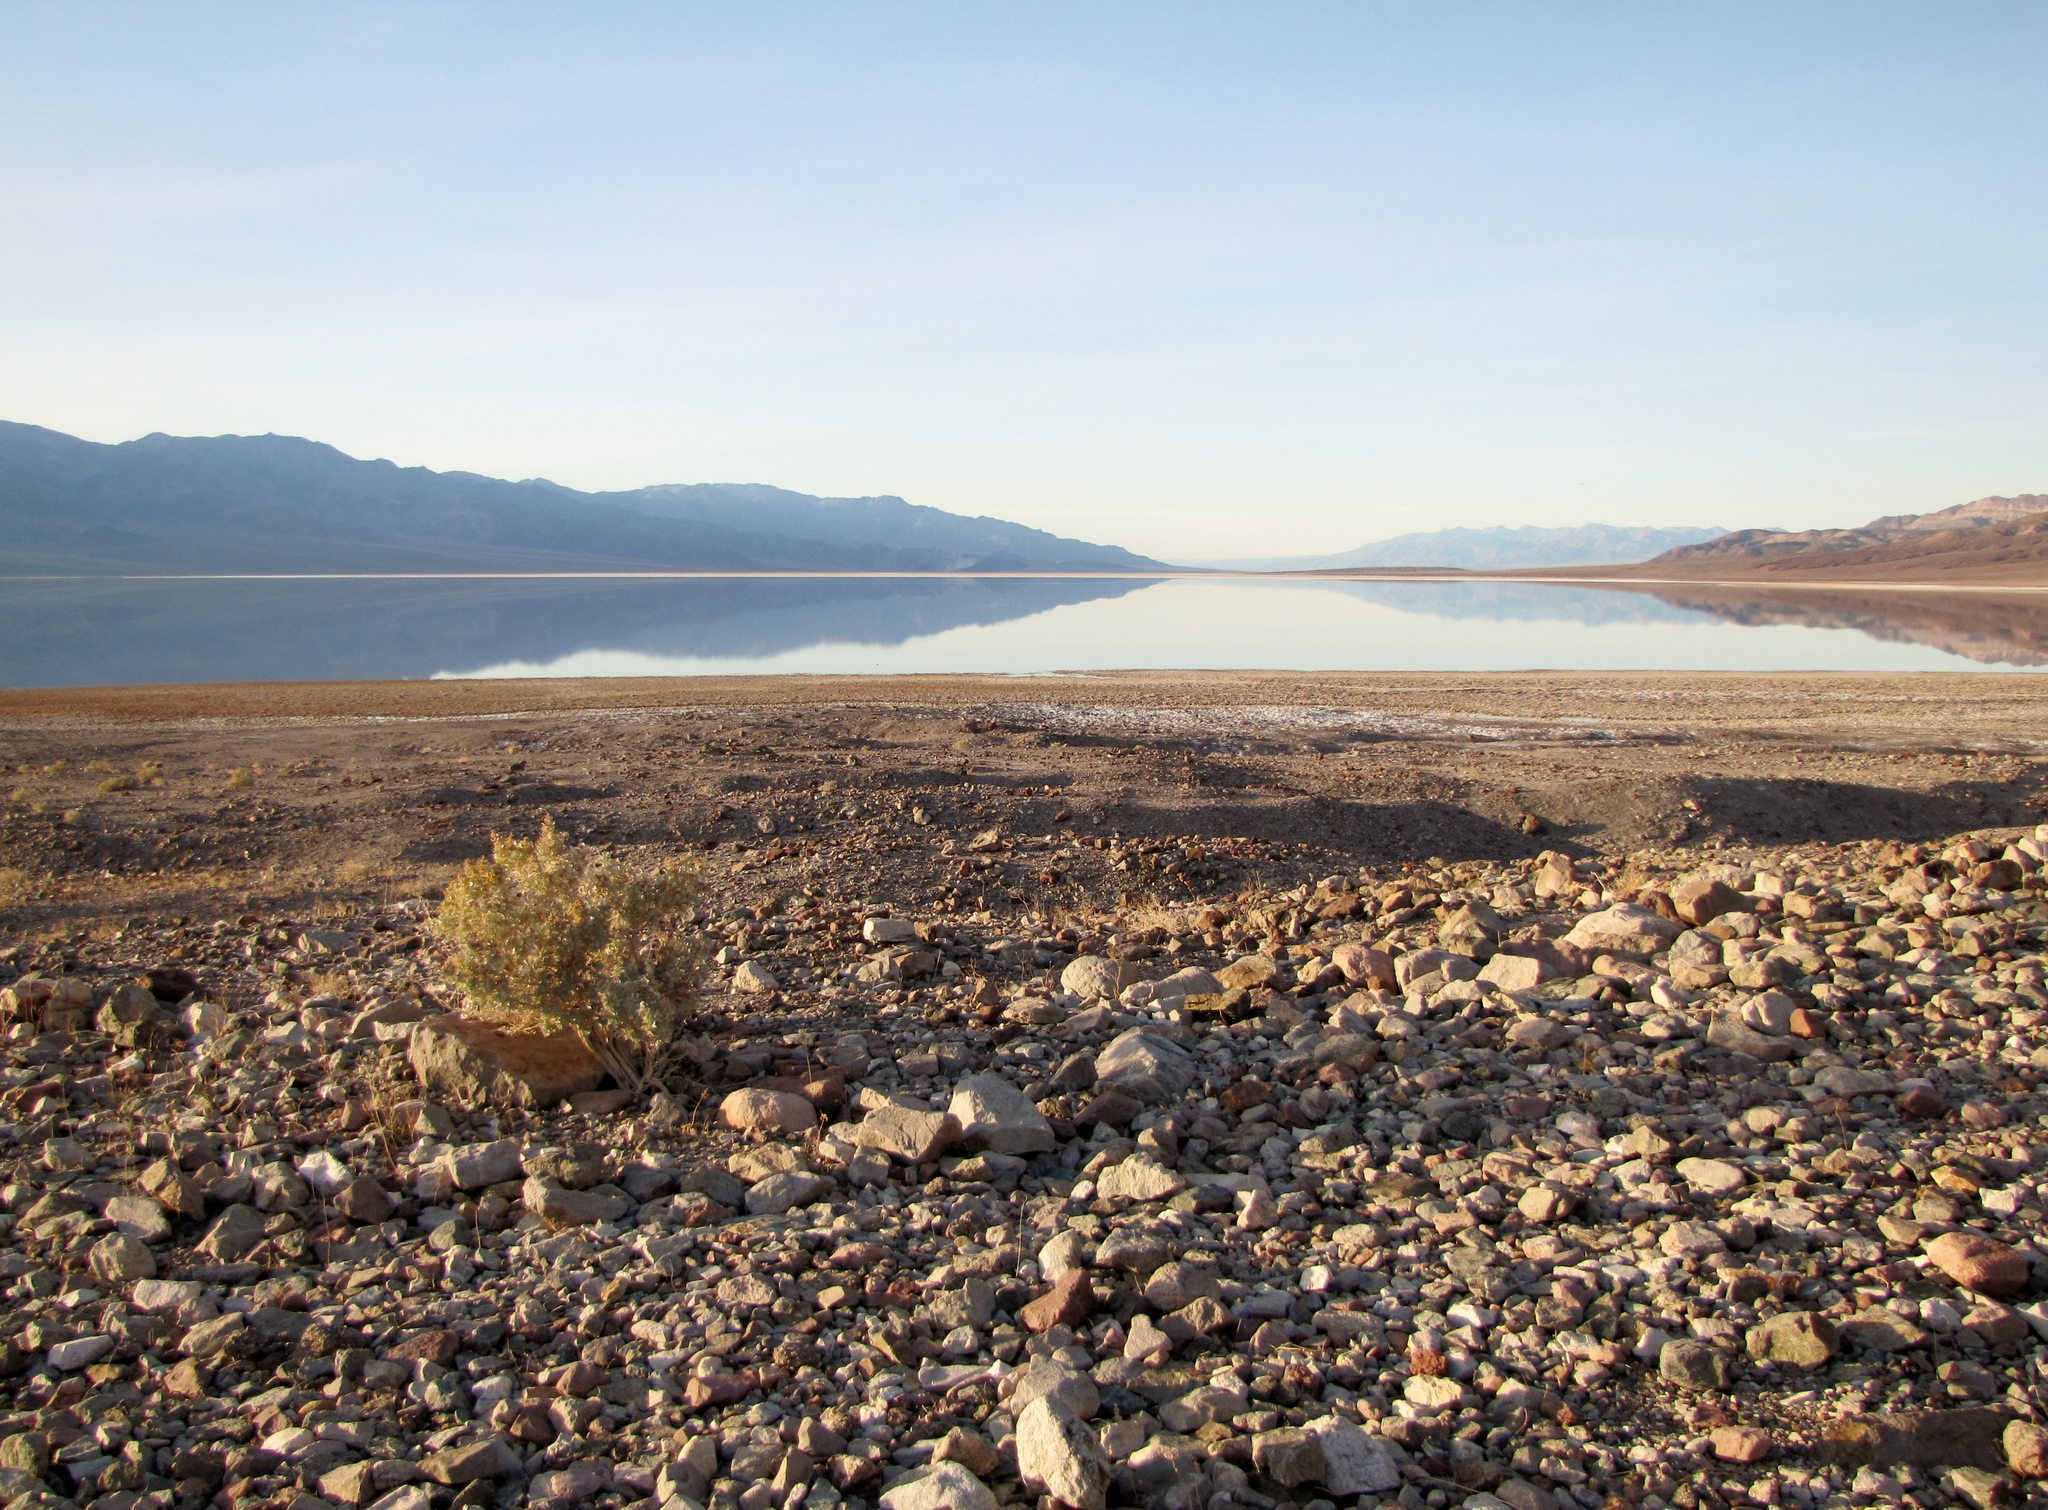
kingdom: Plantae
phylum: Tracheophyta
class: Magnoliopsida
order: Caryophyllales
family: Amaranthaceae
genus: Atriplex
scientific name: Atriplex hymenelytra
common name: Desert-holly
